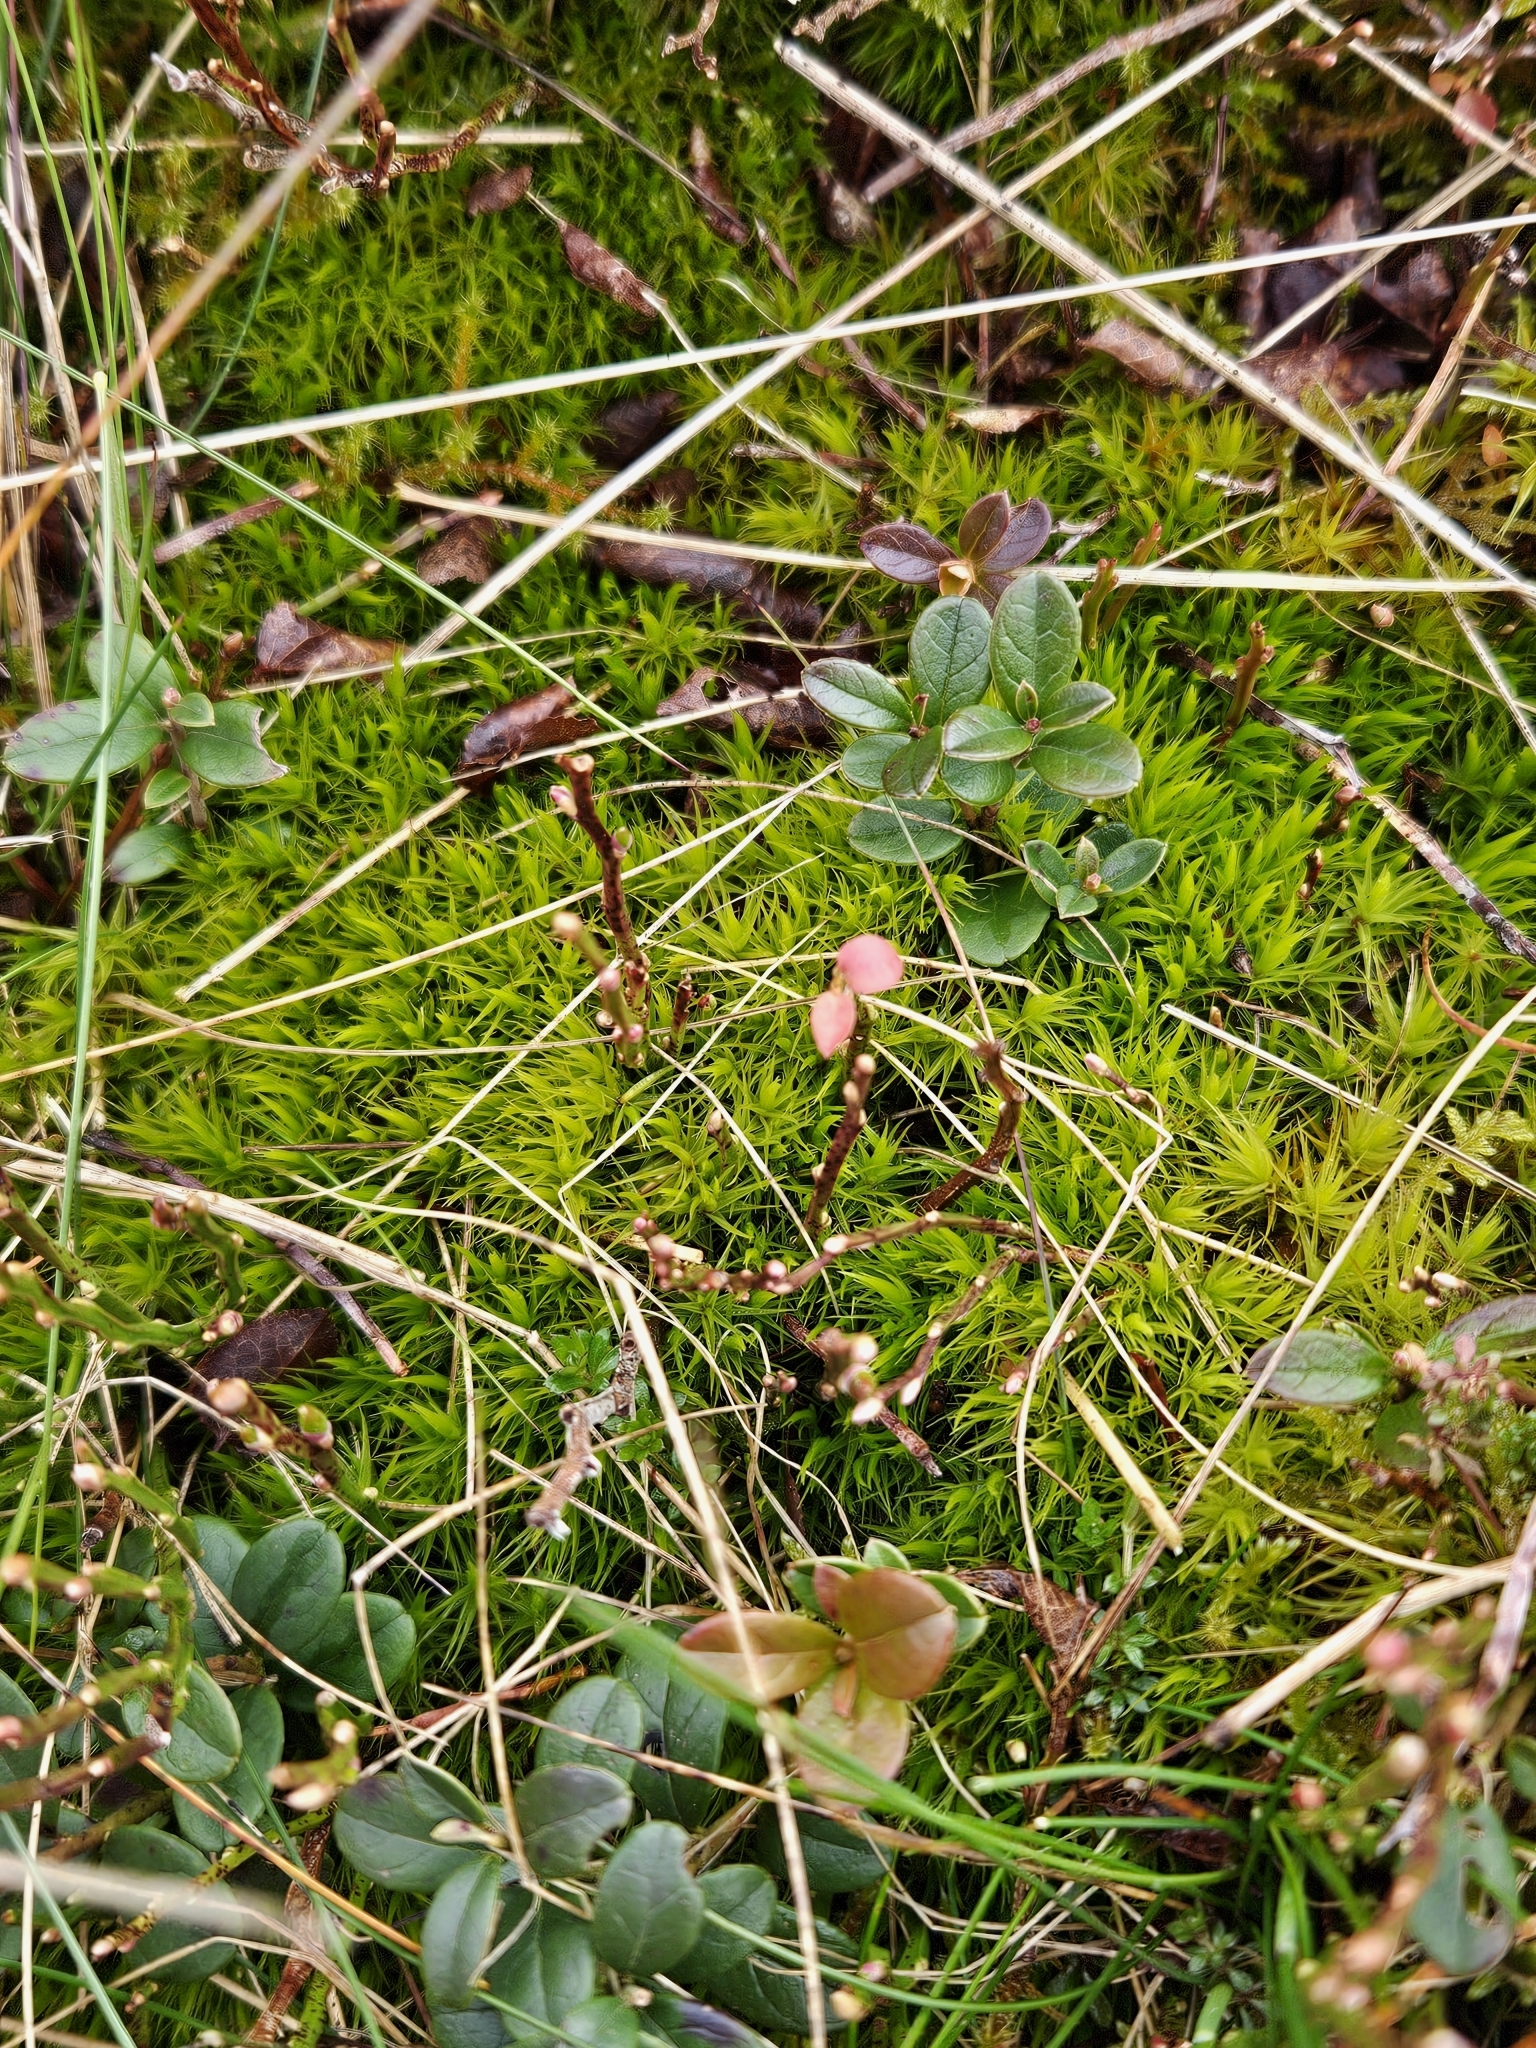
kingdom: Plantae
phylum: Bryophyta
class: Bryopsida
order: Dicranales
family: Dicranaceae
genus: Dicranum
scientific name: Dicranum scoparium
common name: Broom fork-moss
